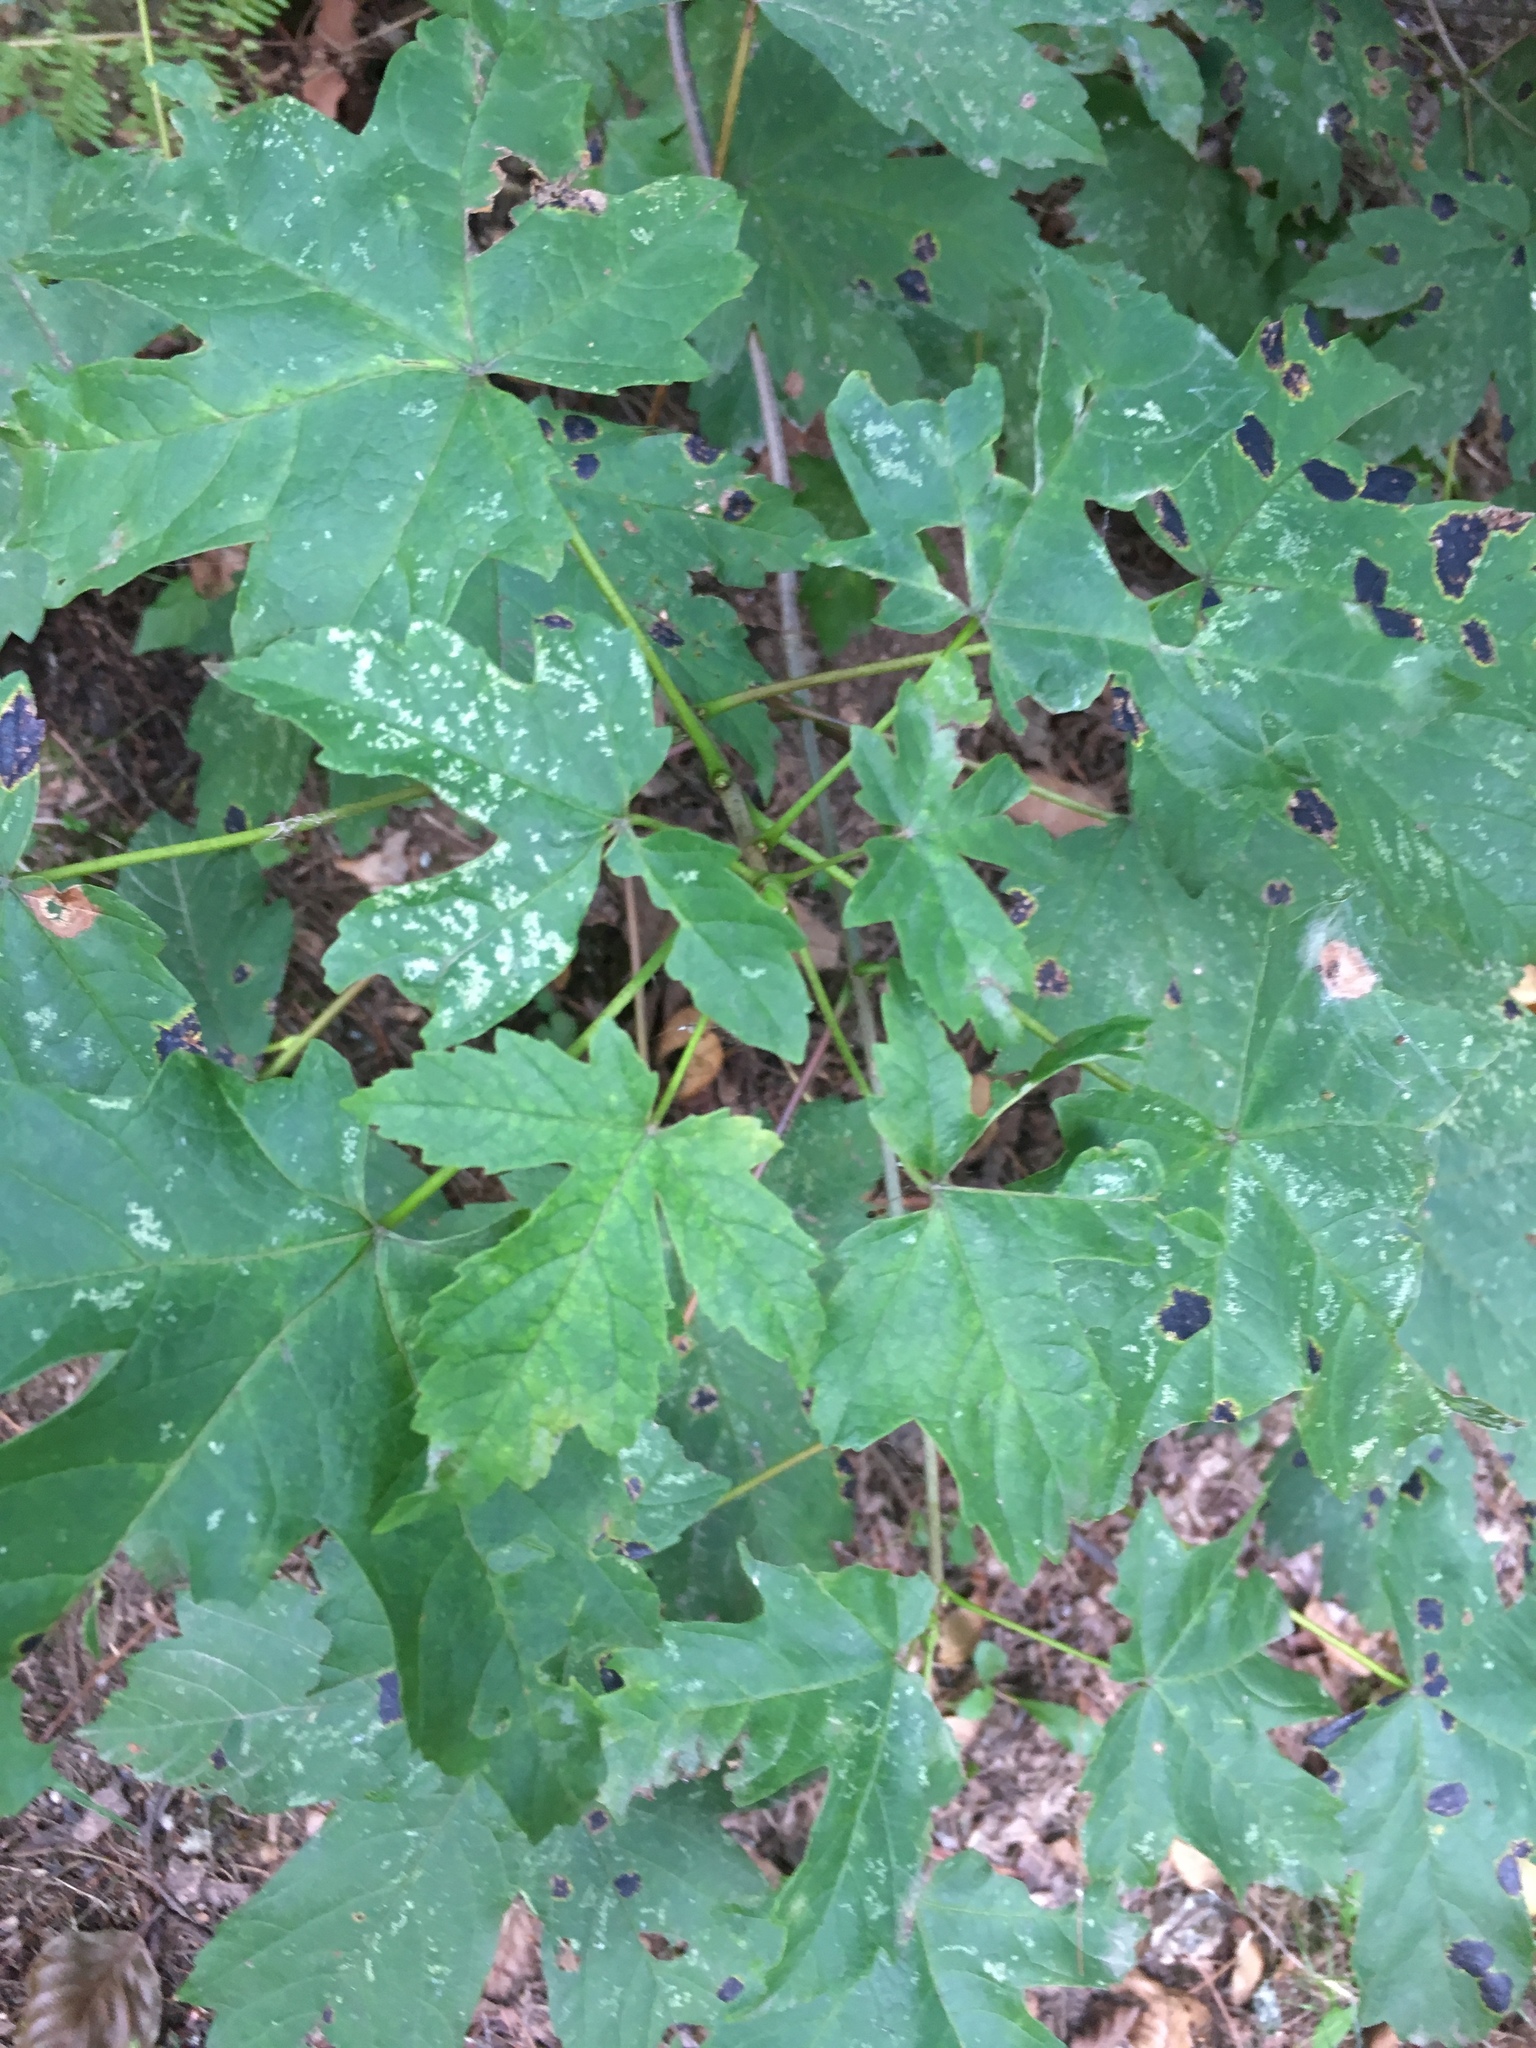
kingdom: Plantae
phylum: Tracheophyta
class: Magnoliopsida
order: Sapindales
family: Sapindaceae
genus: Acer
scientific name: Acer pseudoplatanus
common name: Sycamore
